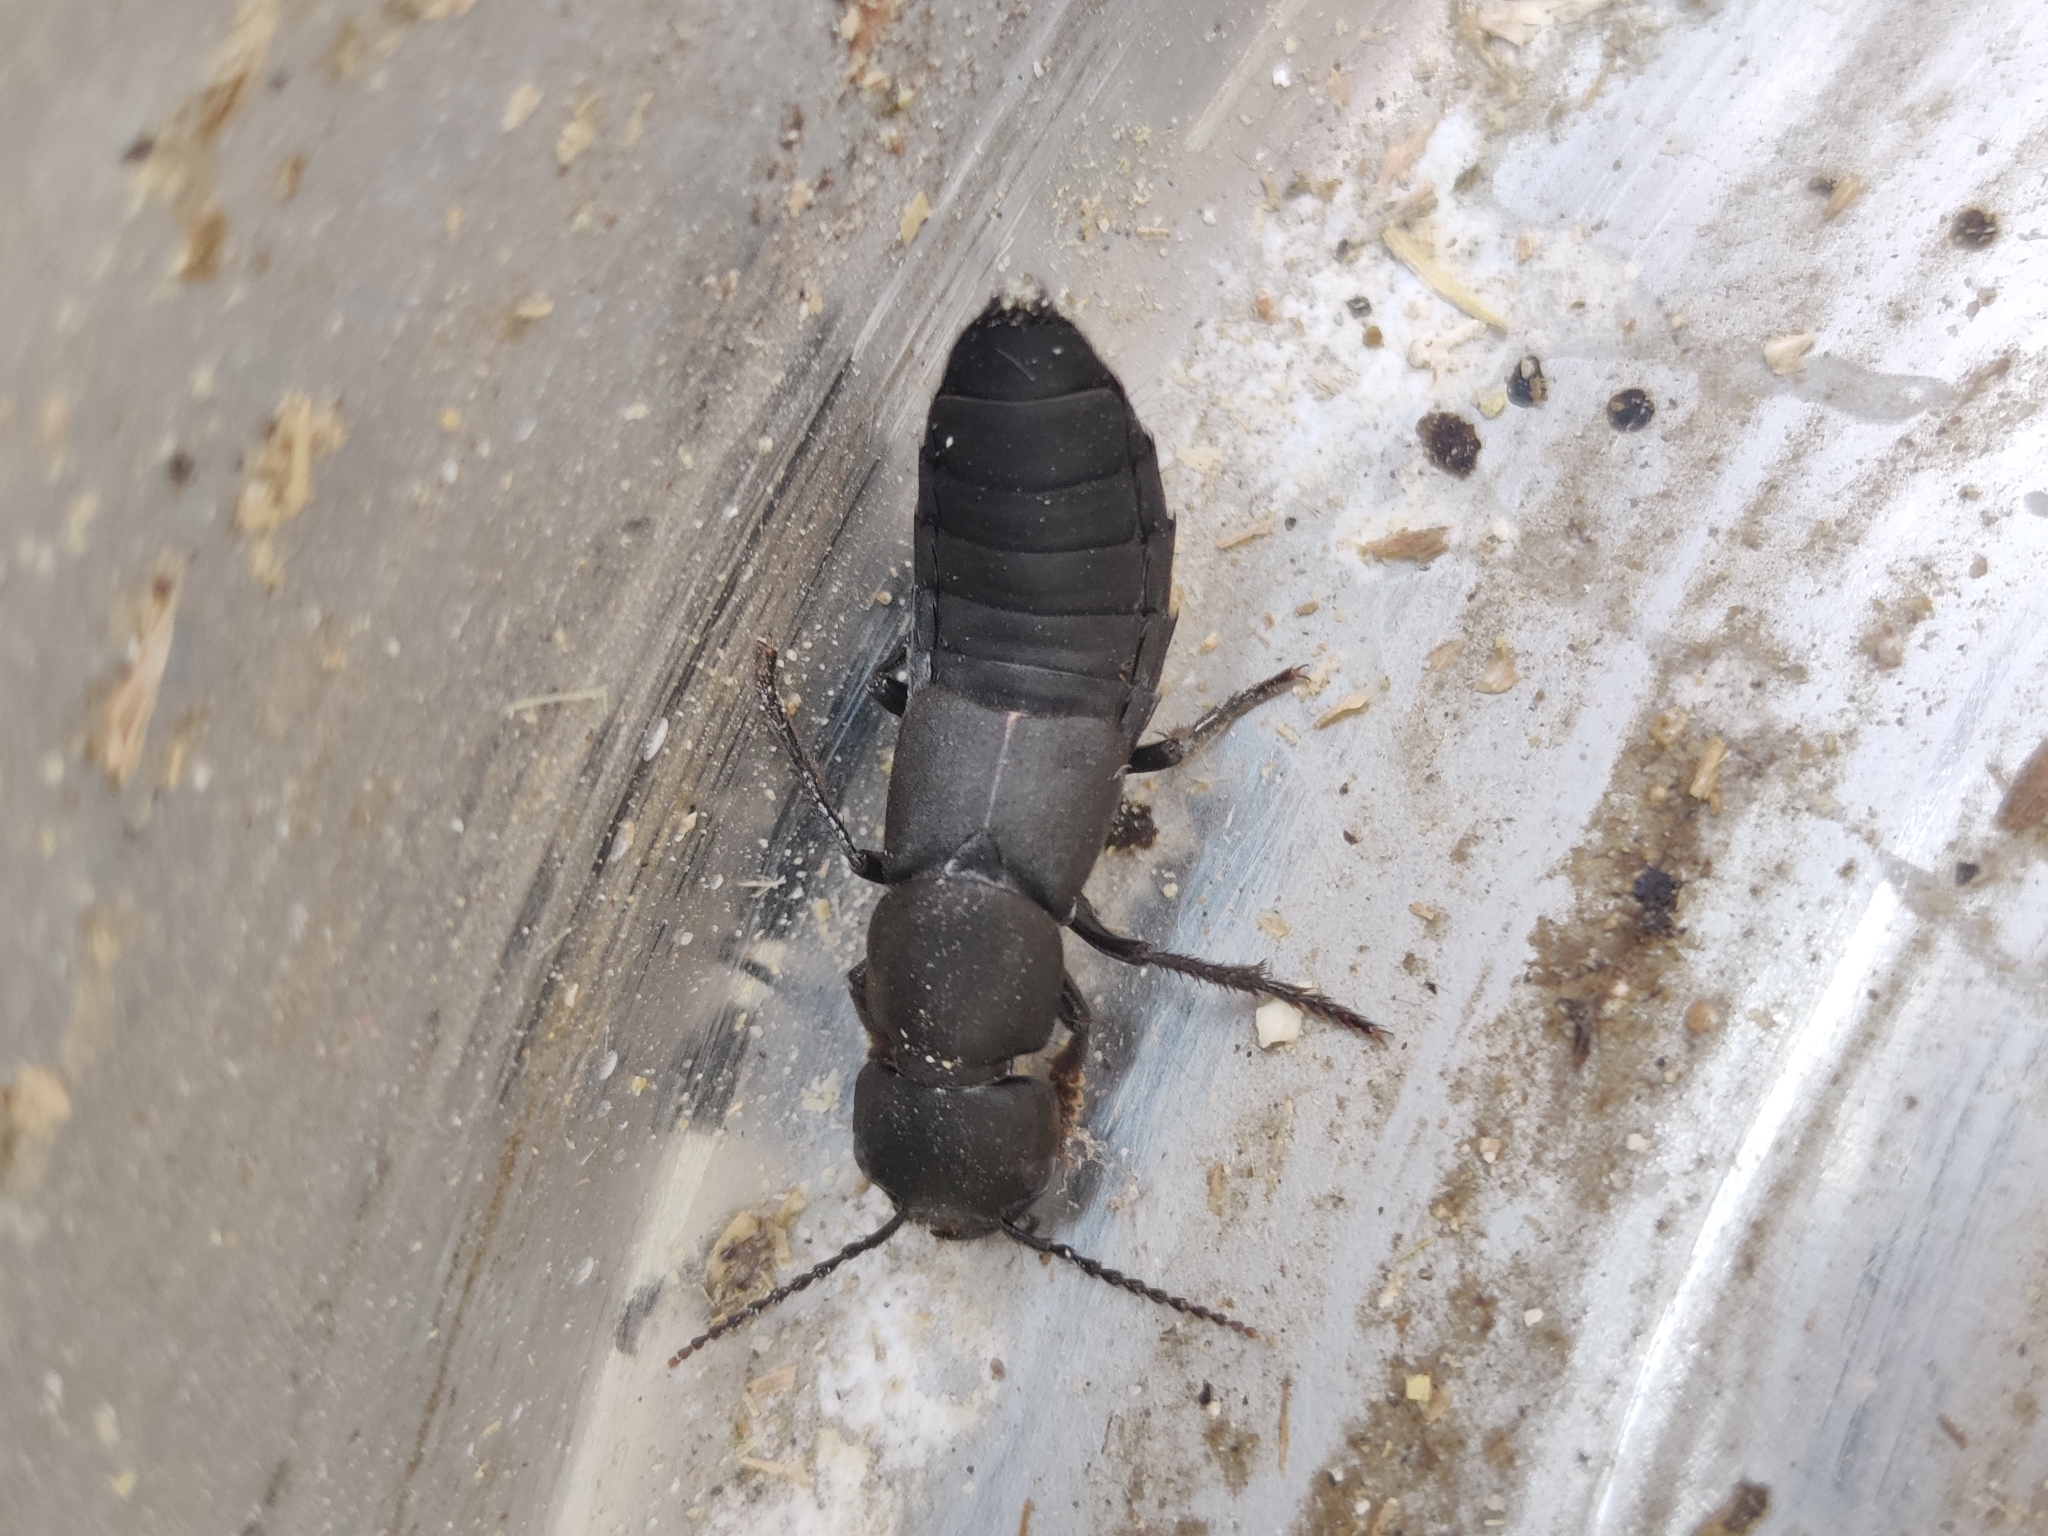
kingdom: Animalia
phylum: Arthropoda
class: Insecta
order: Coleoptera
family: Staphylinidae
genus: Ocypus
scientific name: Ocypus olens
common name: Devil's coach-horse
